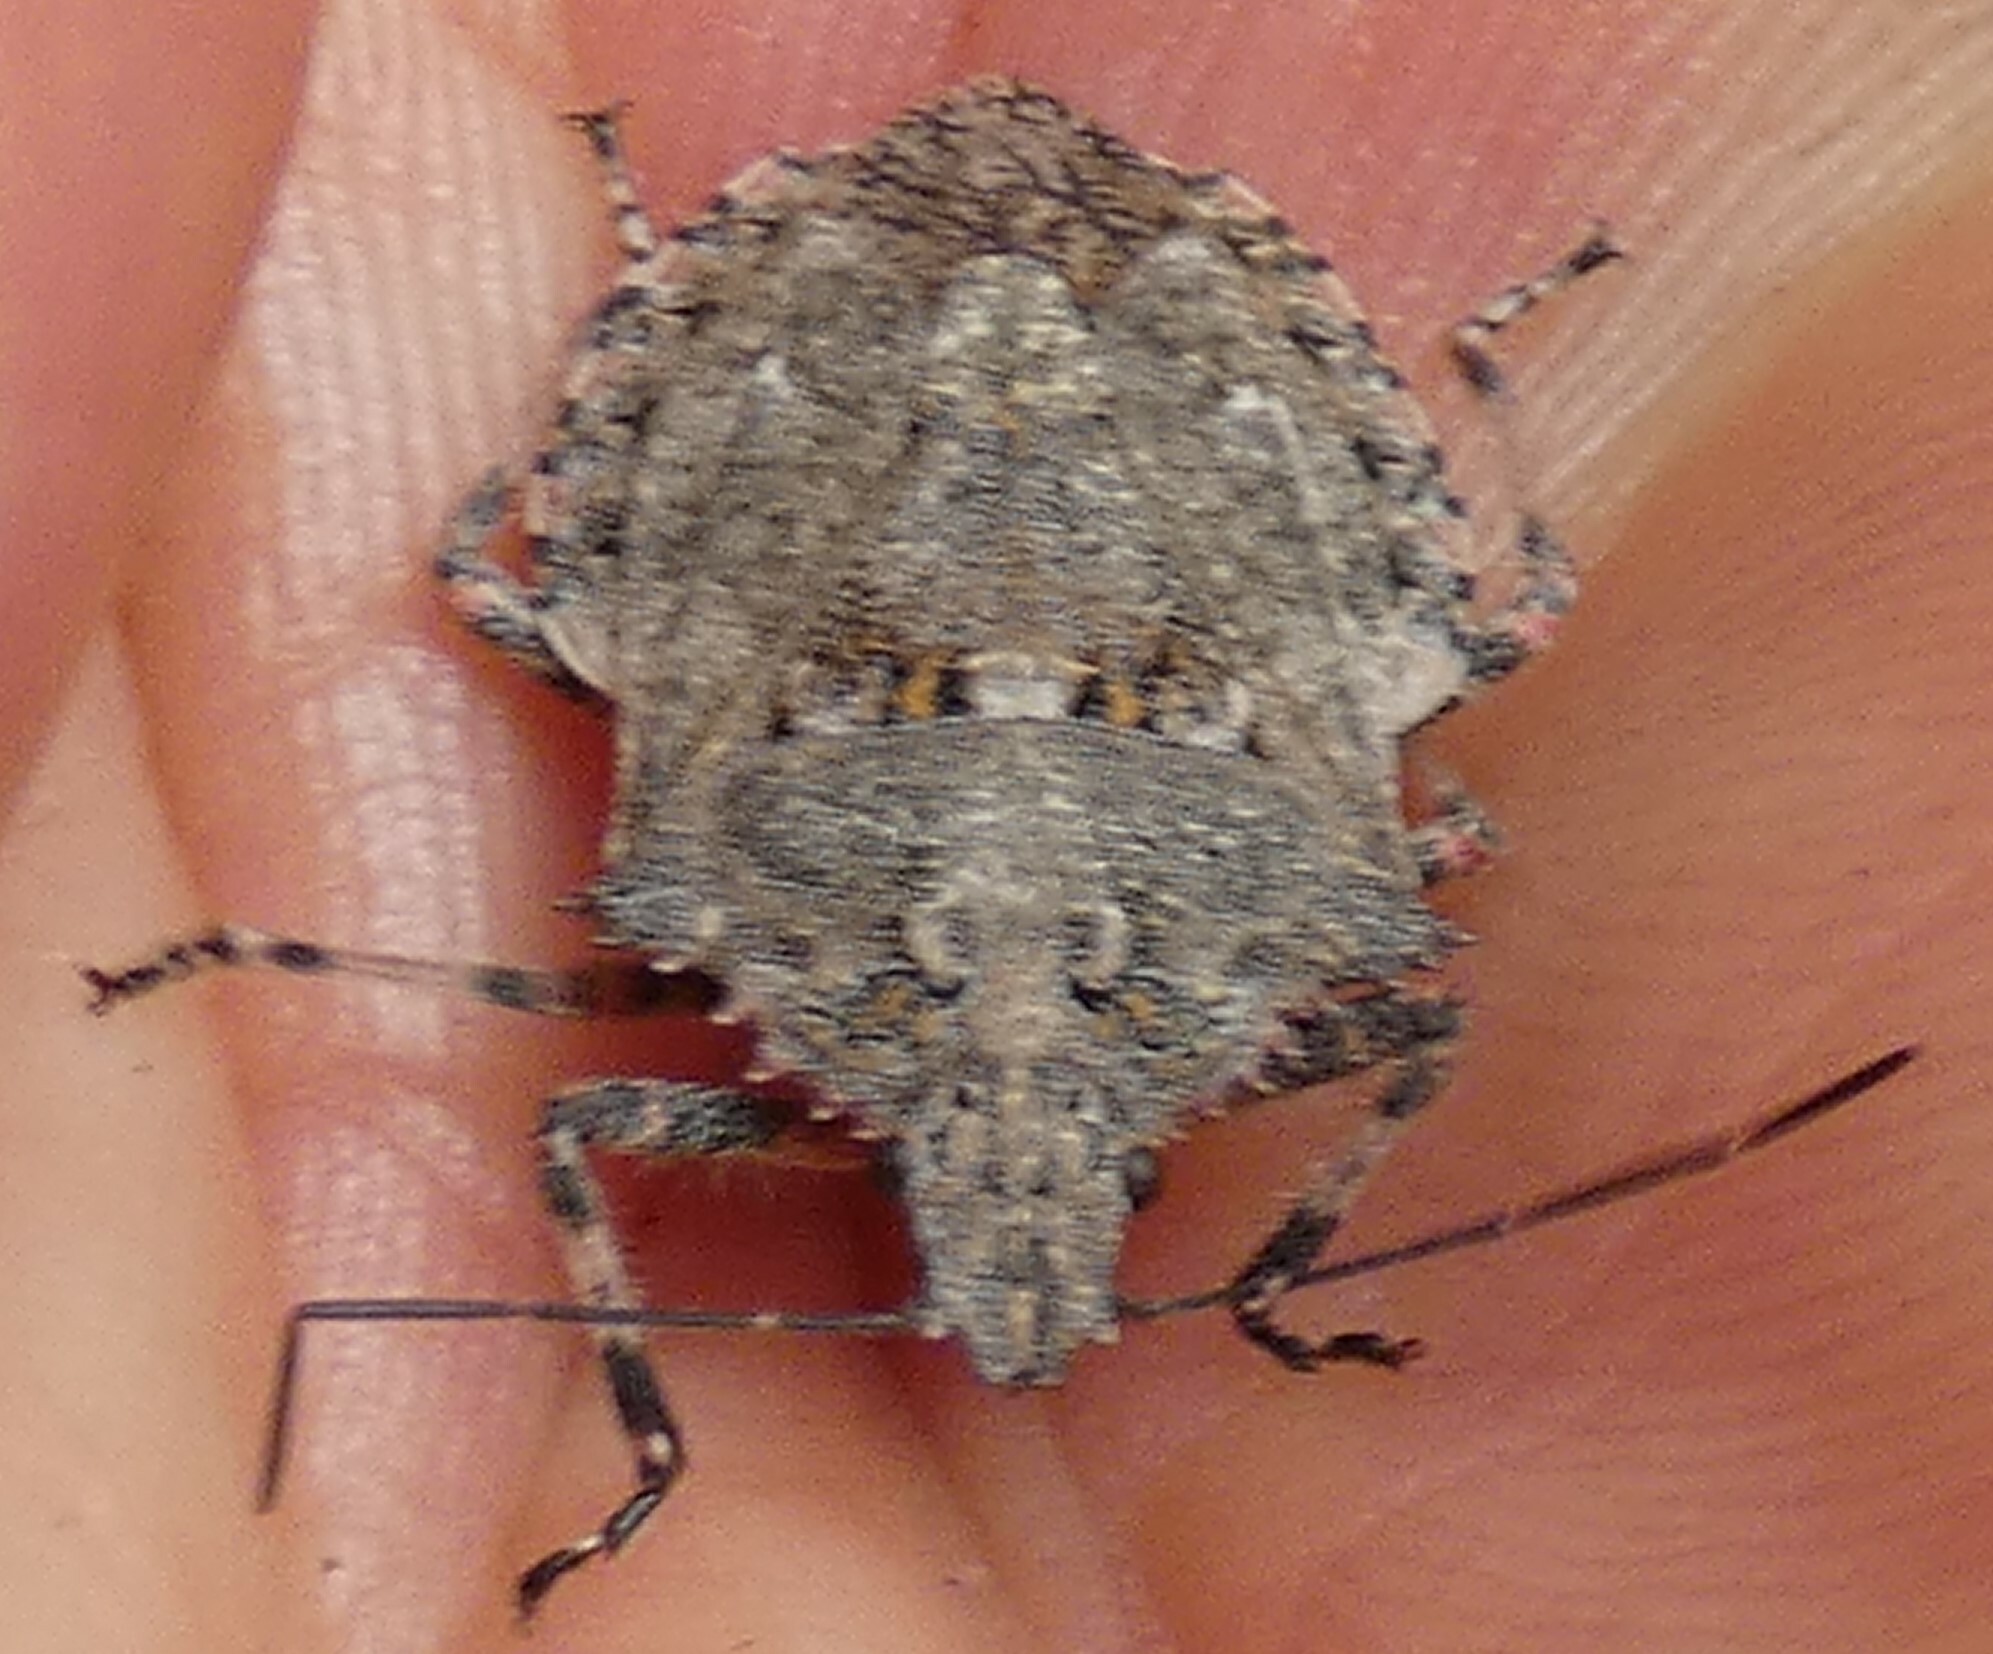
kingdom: Animalia
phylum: Arthropoda
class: Insecta
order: Hemiptera
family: Pentatomidae
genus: Brochymena
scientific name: Brochymena arborea
